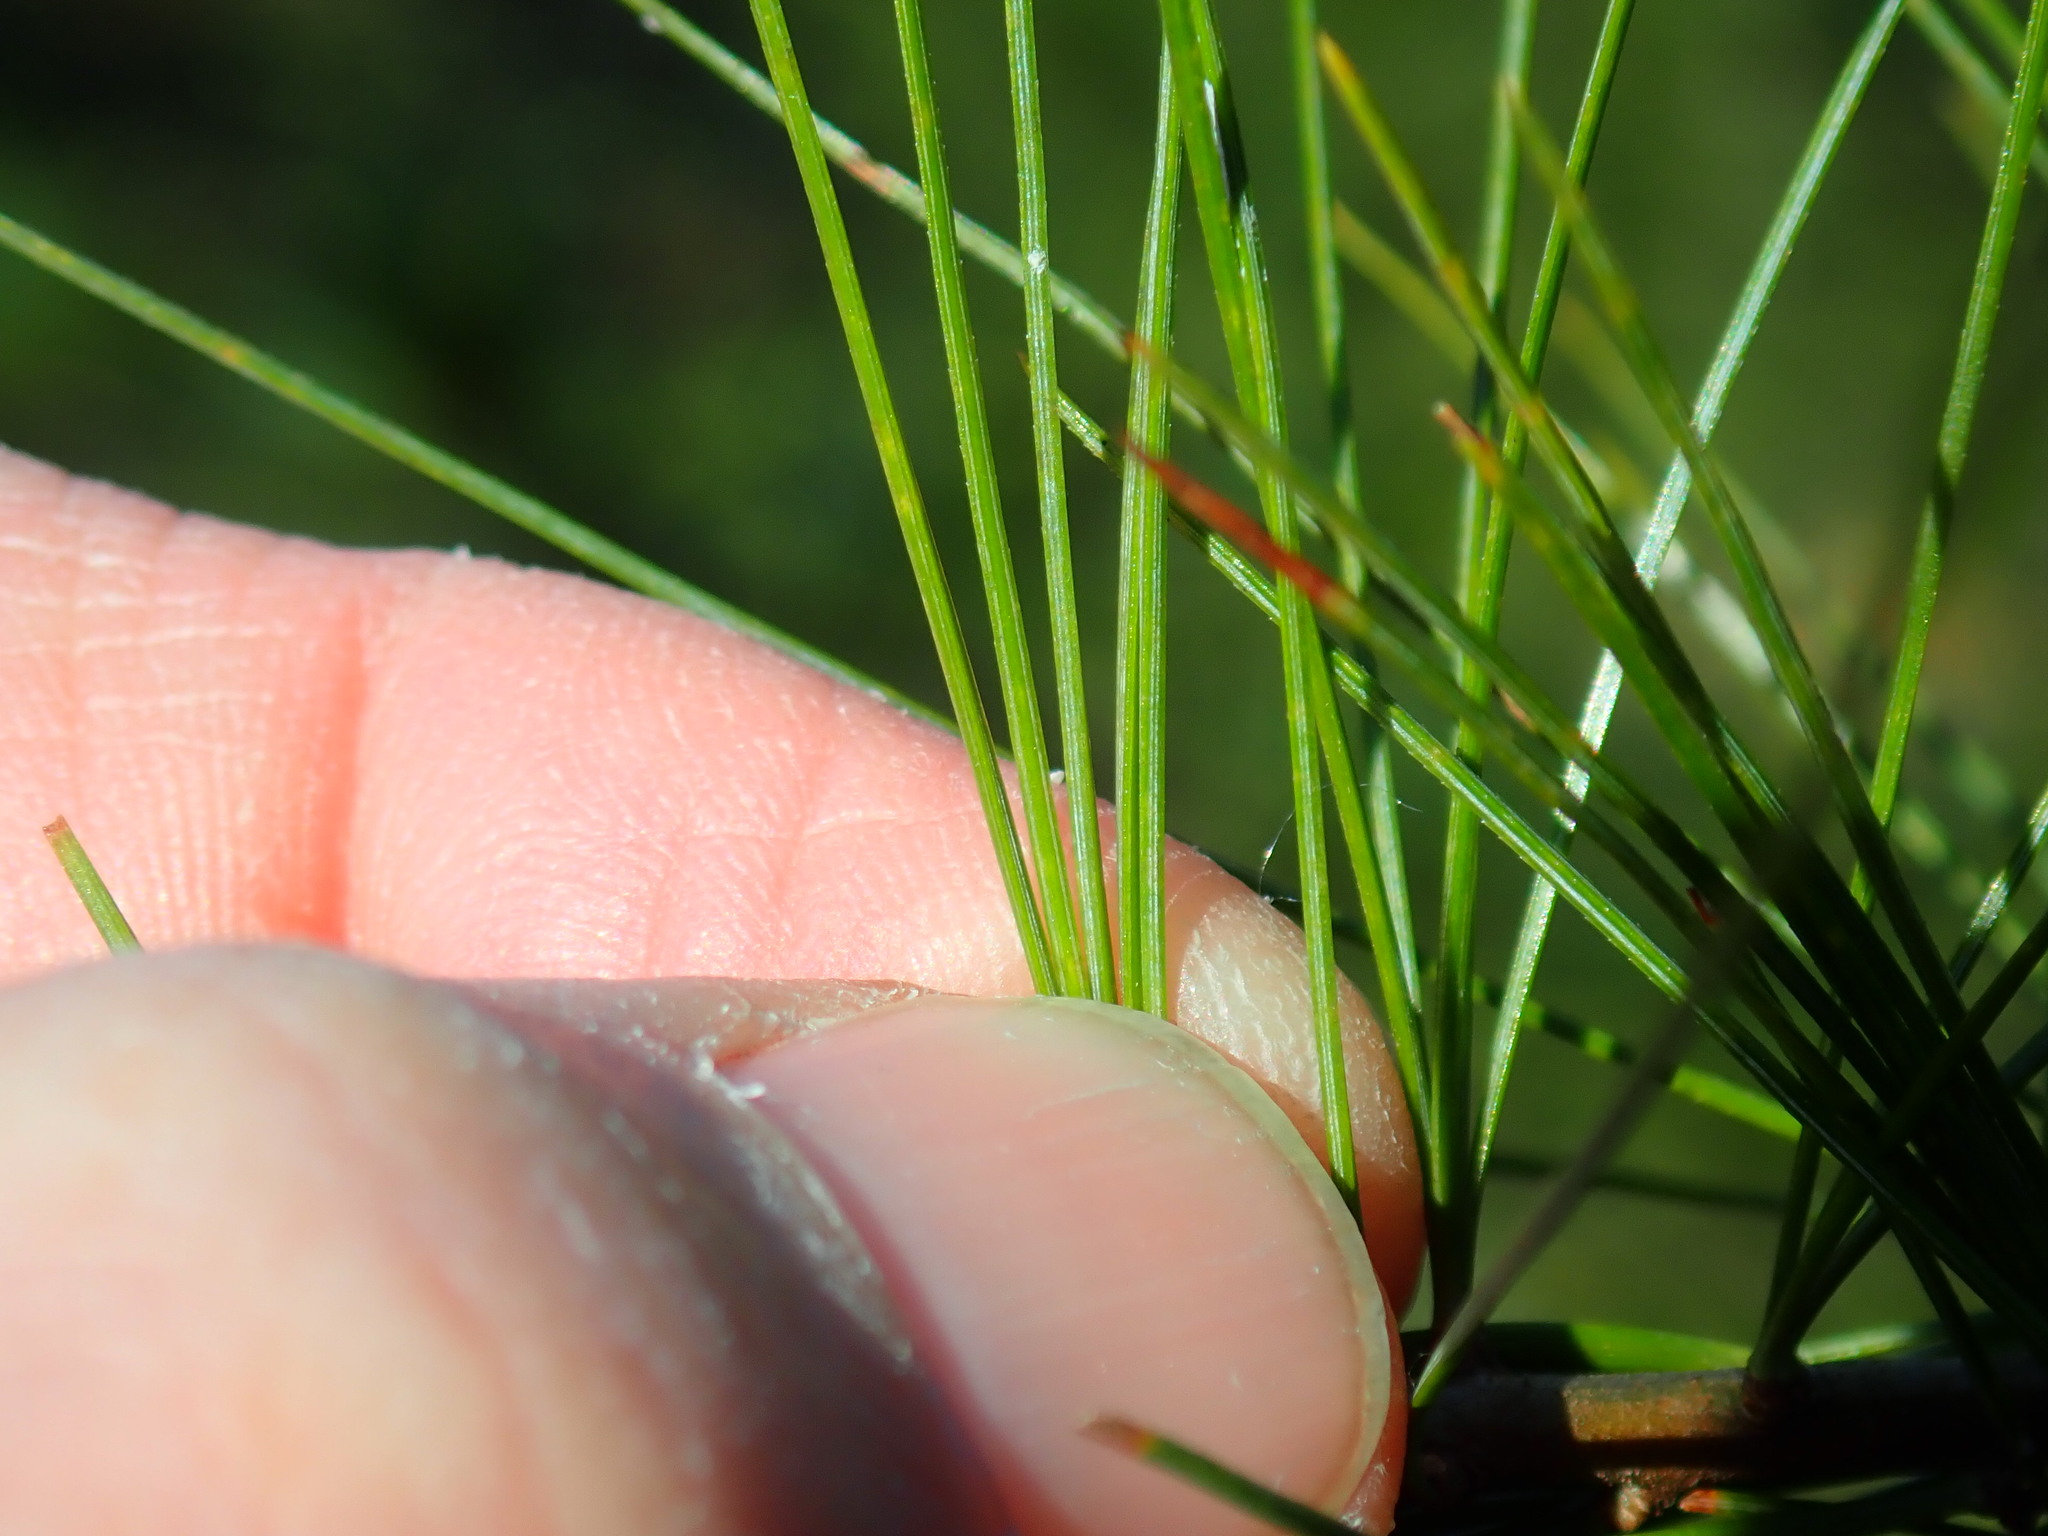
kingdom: Plantae
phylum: Tracheophyta
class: Pinopsida
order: Pinales
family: Pinaceae
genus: Pinus
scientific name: Pinus strobus
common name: Weymouth pine
